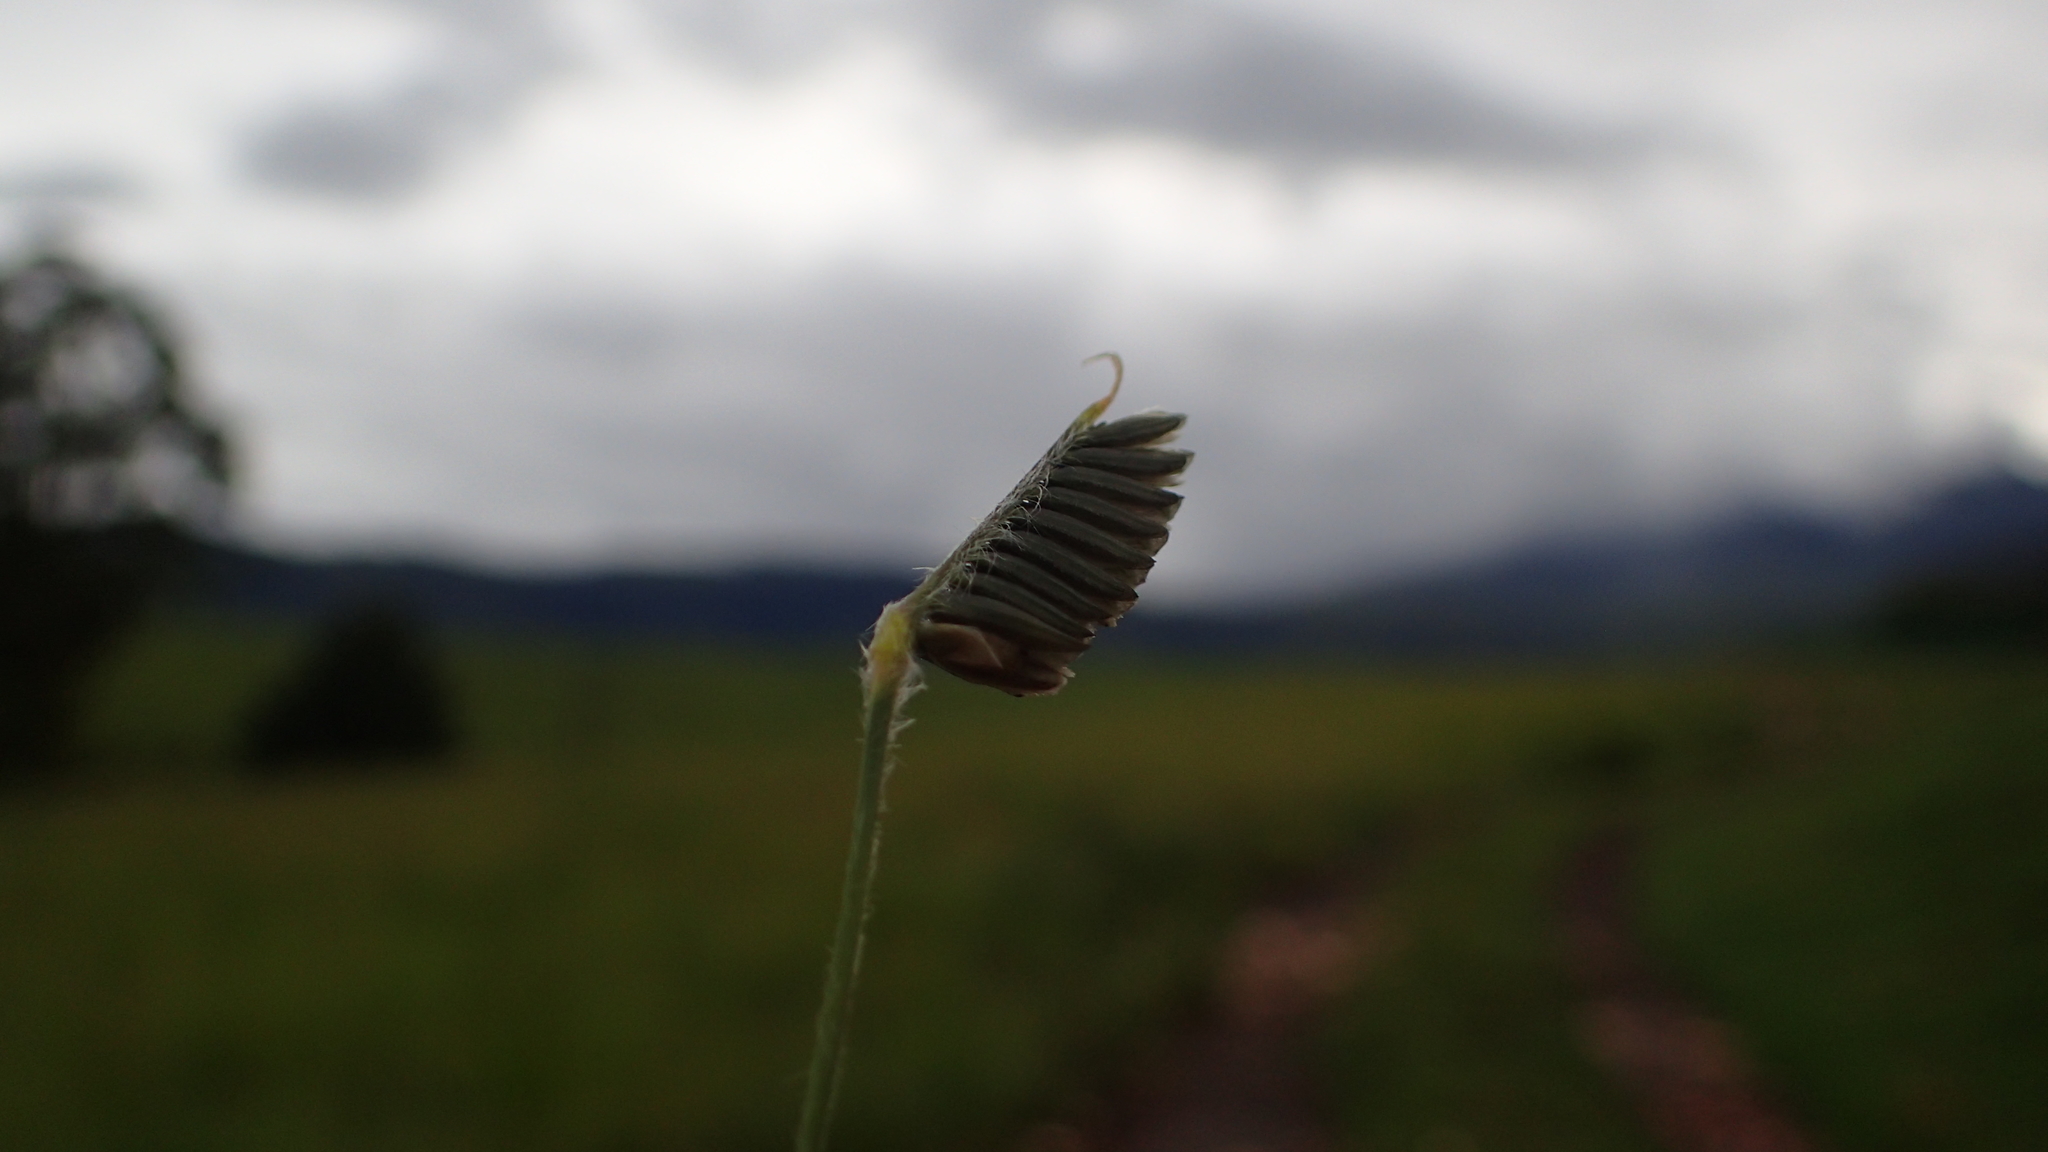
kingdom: Plantae
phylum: Tracheophyta
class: Liliopsida
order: Poales
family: Poaceae
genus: Harpochloa
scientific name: Harpochloa falx
